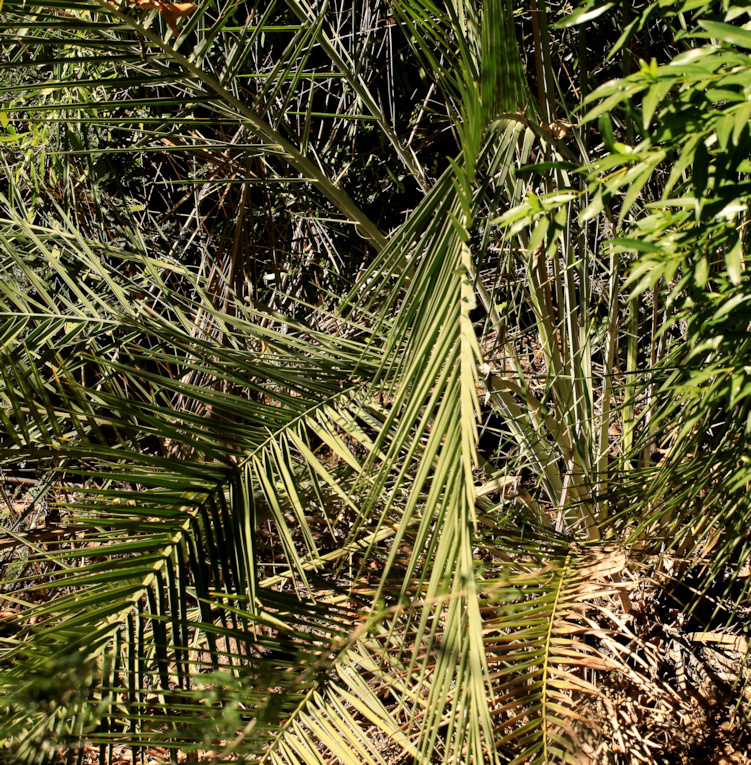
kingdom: Plantae
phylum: Tracheophyta
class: Liliopsida
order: Arecales
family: Arecaceae
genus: Phoenix
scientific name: Phoenix reclinata
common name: Senegal date palm
